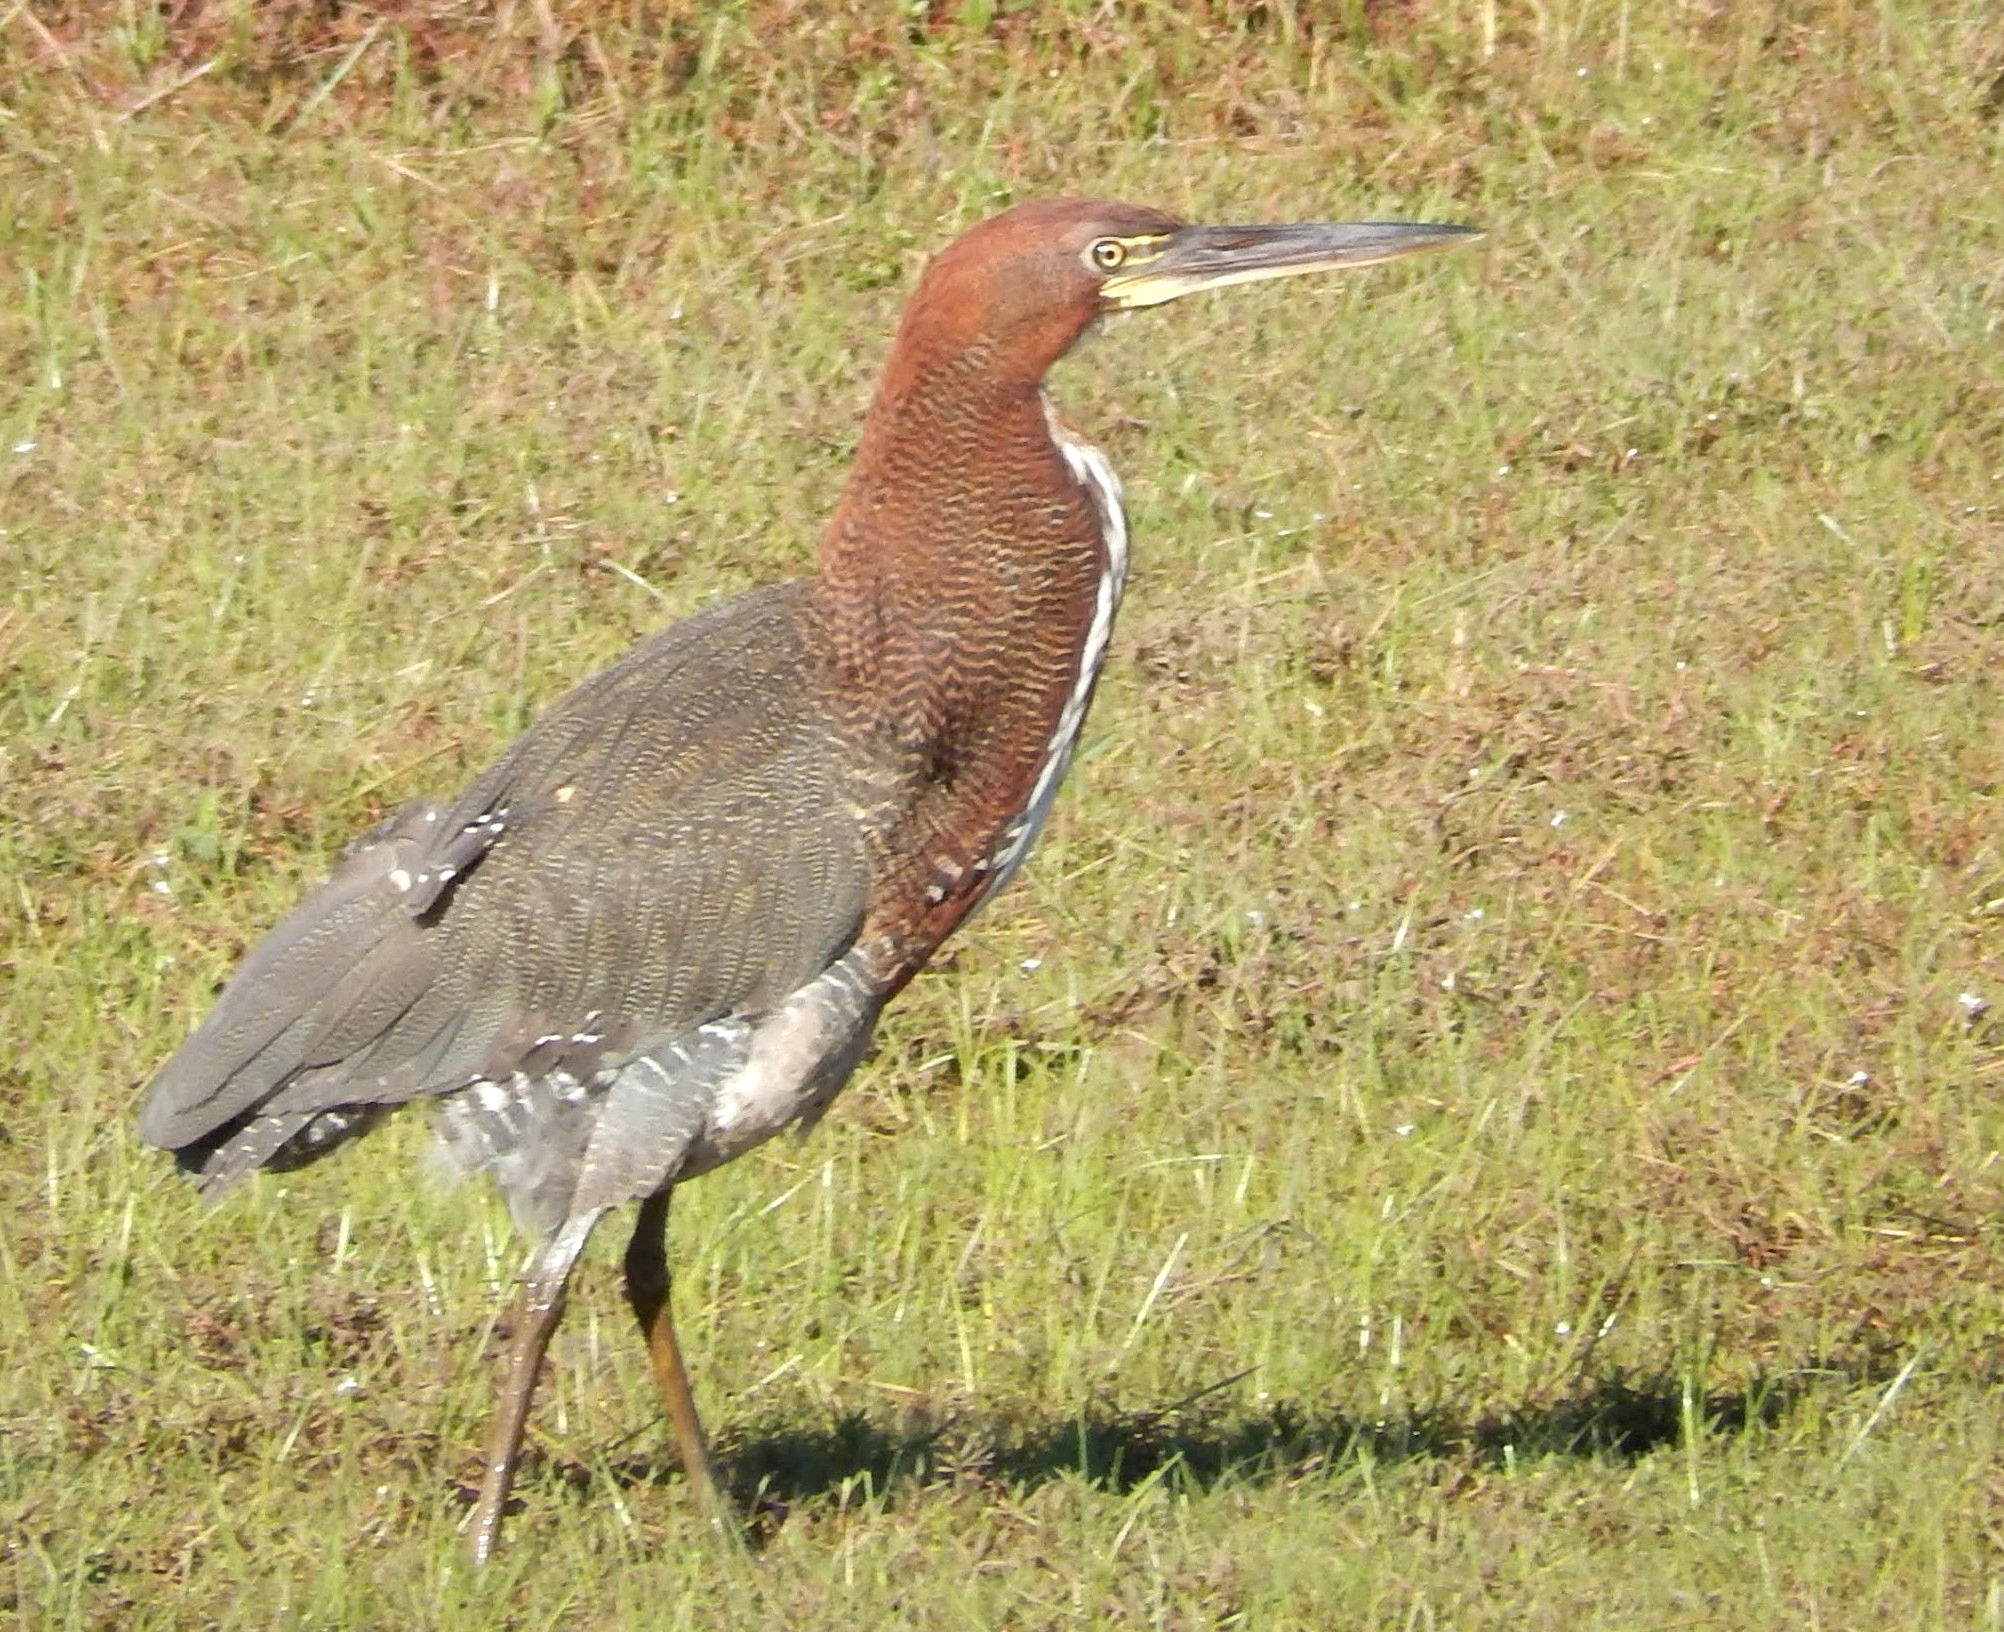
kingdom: Animalia
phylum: Chordata
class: Aves
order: Pelecaniformes
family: Ardeidae
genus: Tigrisoma
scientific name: Tigrisoma lineatum
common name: Rufescent tiger-heron
